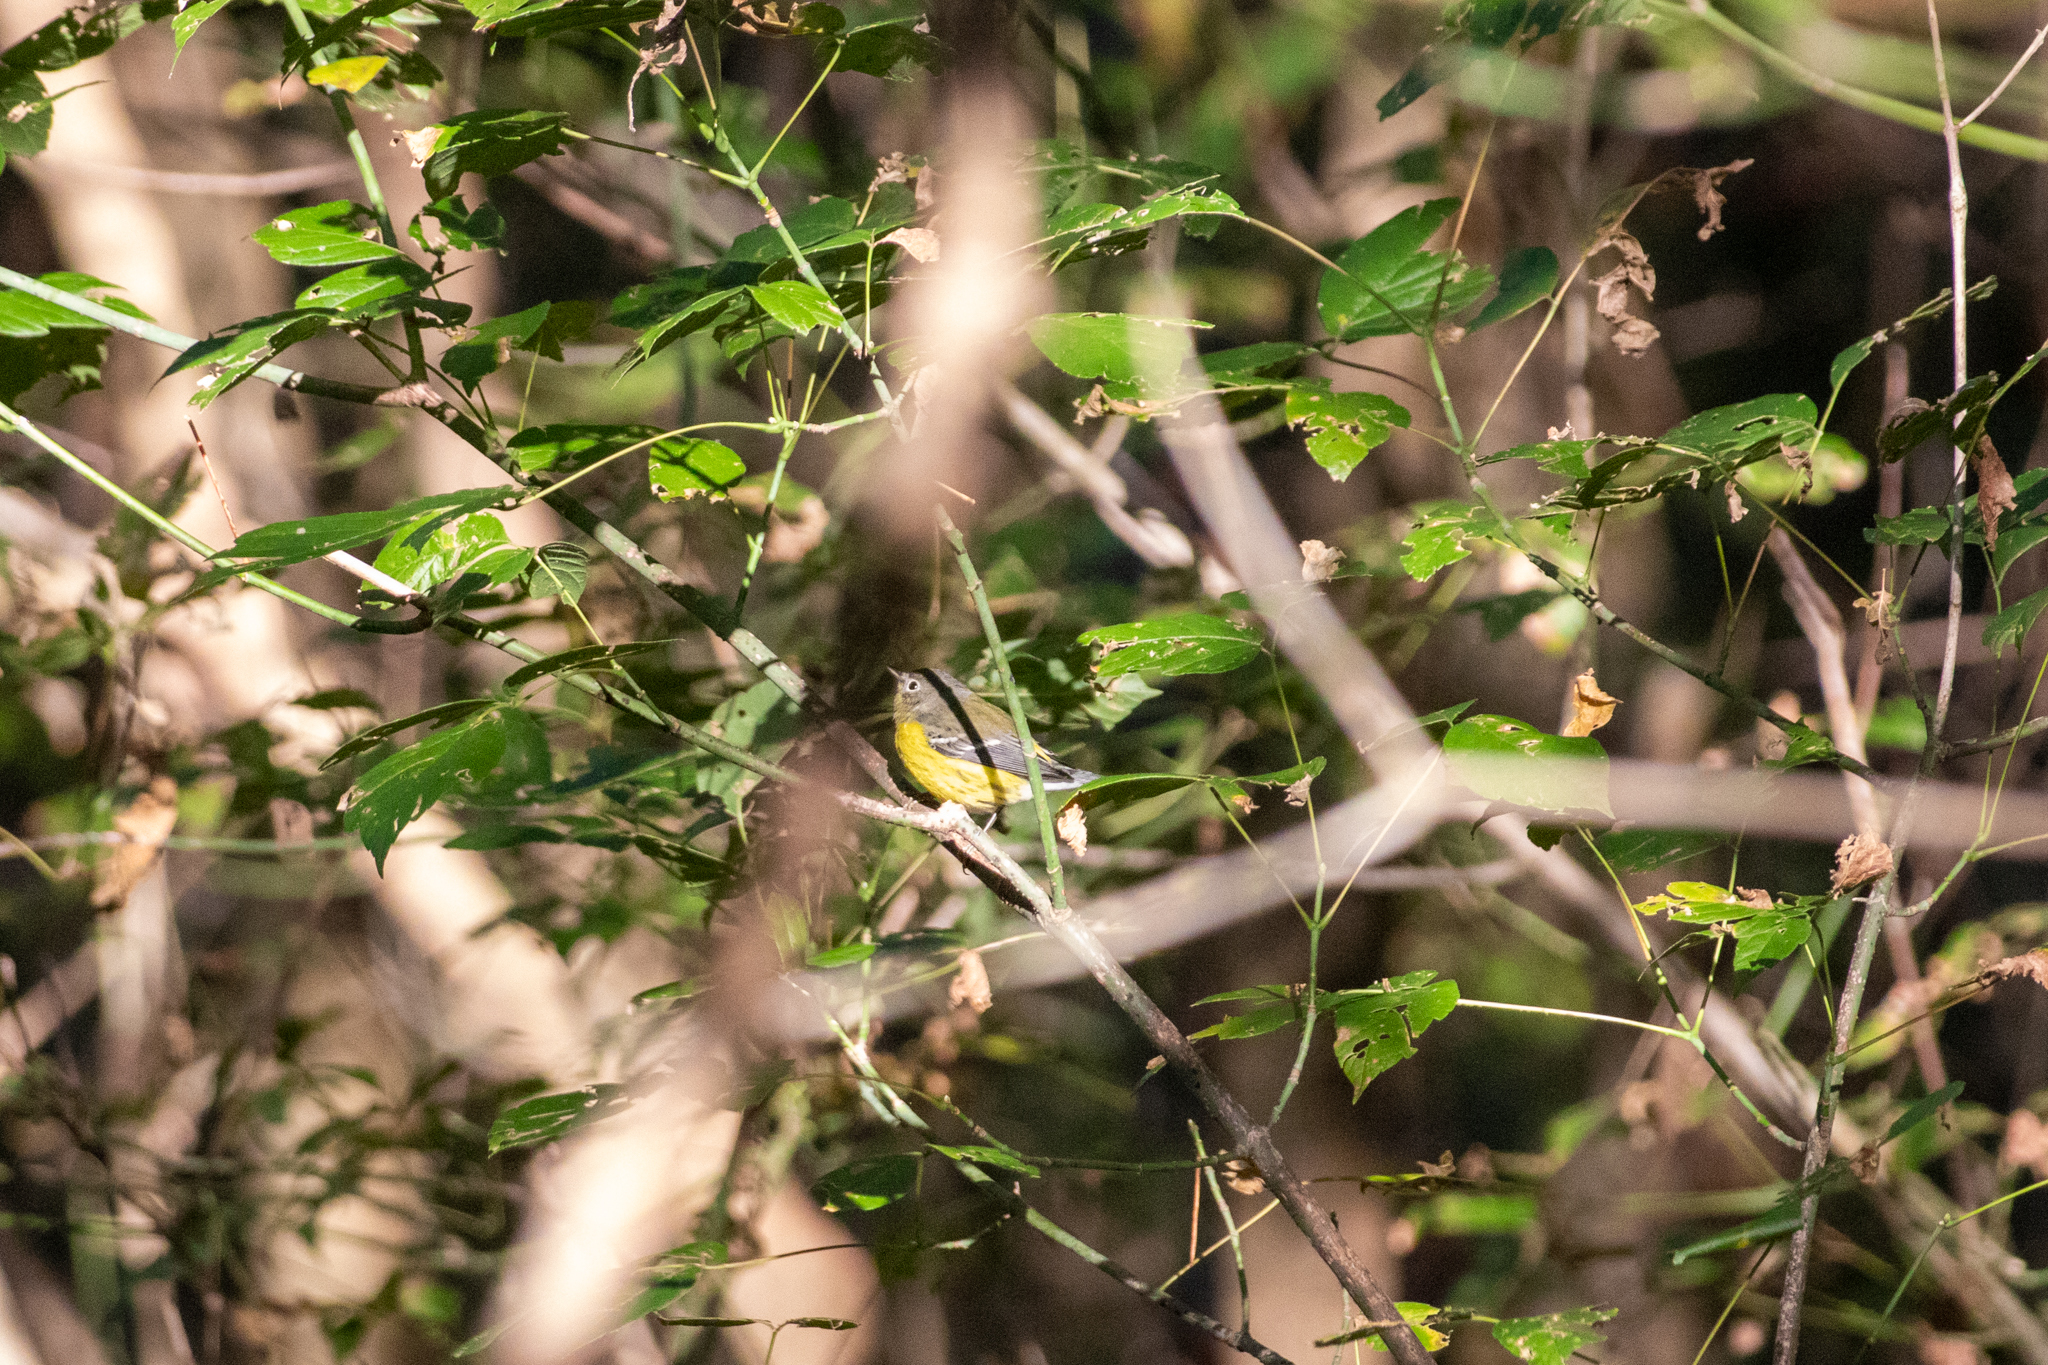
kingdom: Animalia
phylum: Chordata
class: Aves
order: Passeriformes
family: Parulidae
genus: Setophaga
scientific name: Setophaga magnolia
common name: Magnolia warbler
